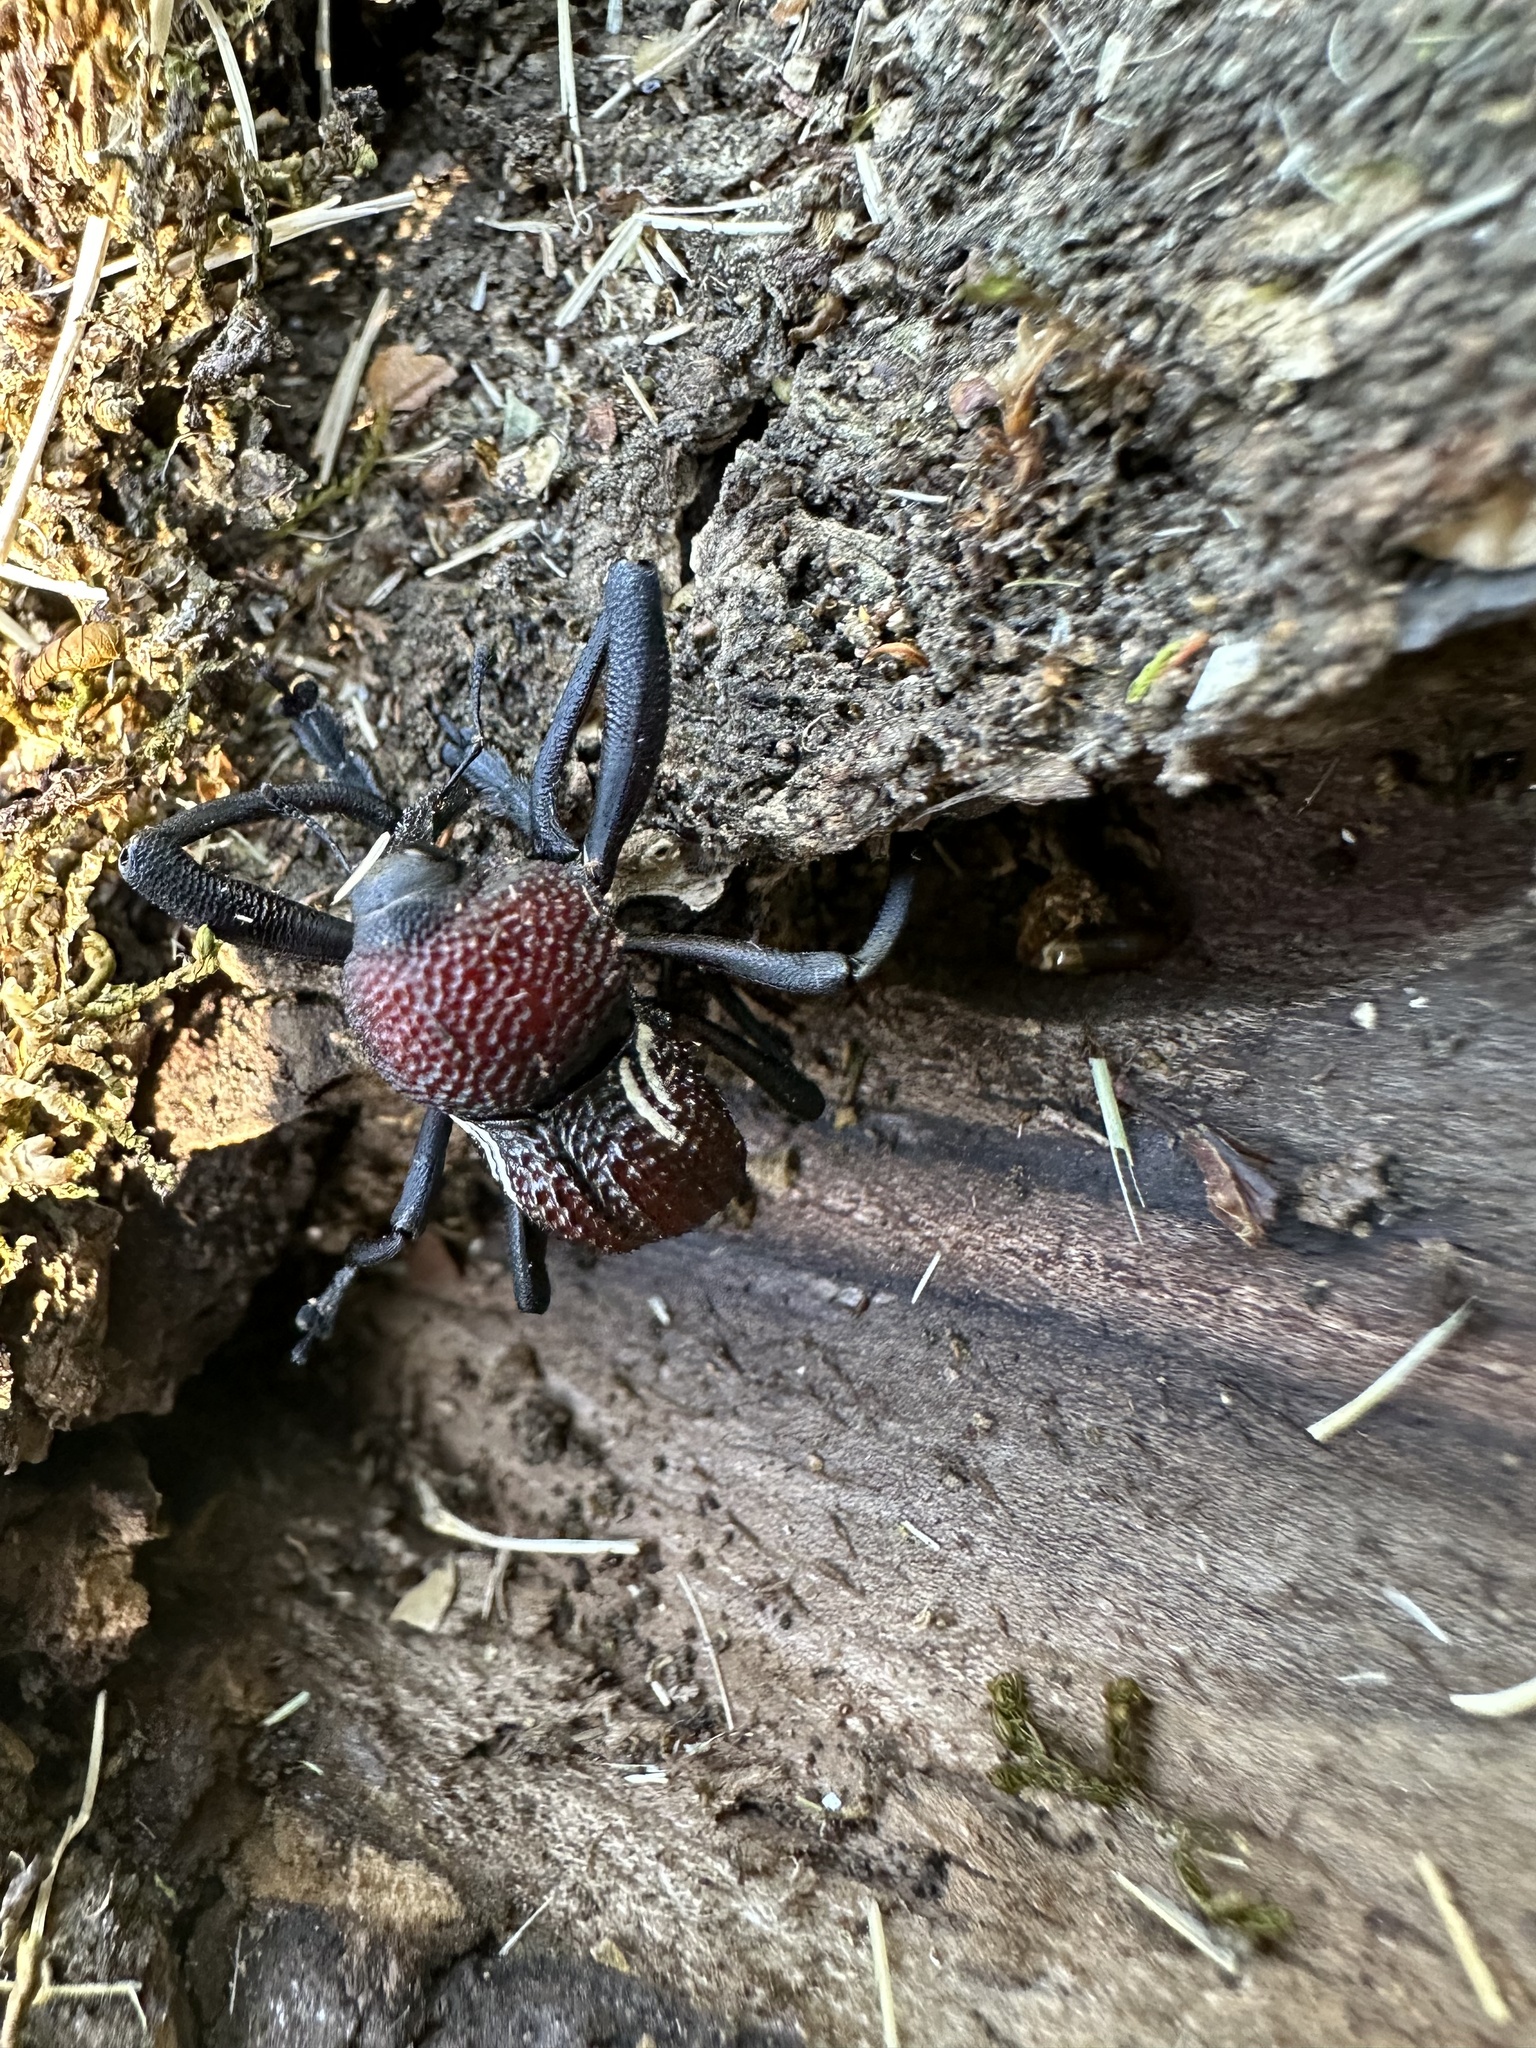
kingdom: Animalia
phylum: Arthropoda
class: Insecta
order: Coleoptera
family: Curculionidae
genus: Rhyephenes
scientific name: Rhyephenes humeralis
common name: Araè±ita chilena del pino
